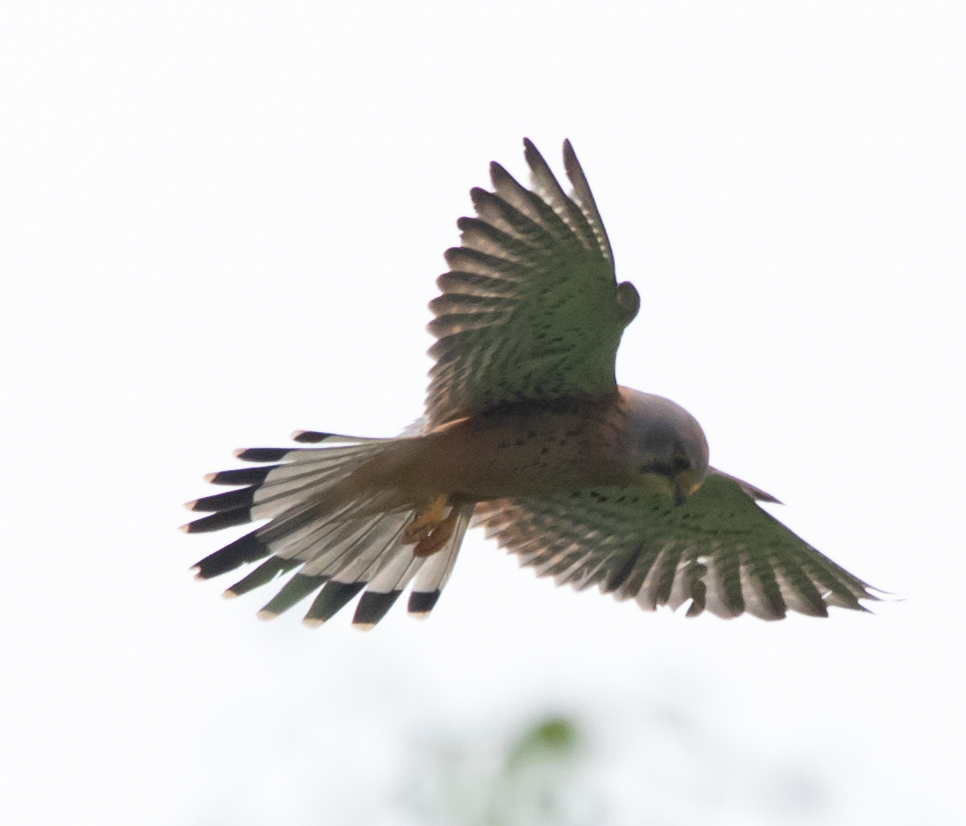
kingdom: Animalia
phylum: Chordata
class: Aves
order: Falconiformes
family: Falconidae
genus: Falco
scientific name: Falco tinnunculus
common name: Common kestrel
